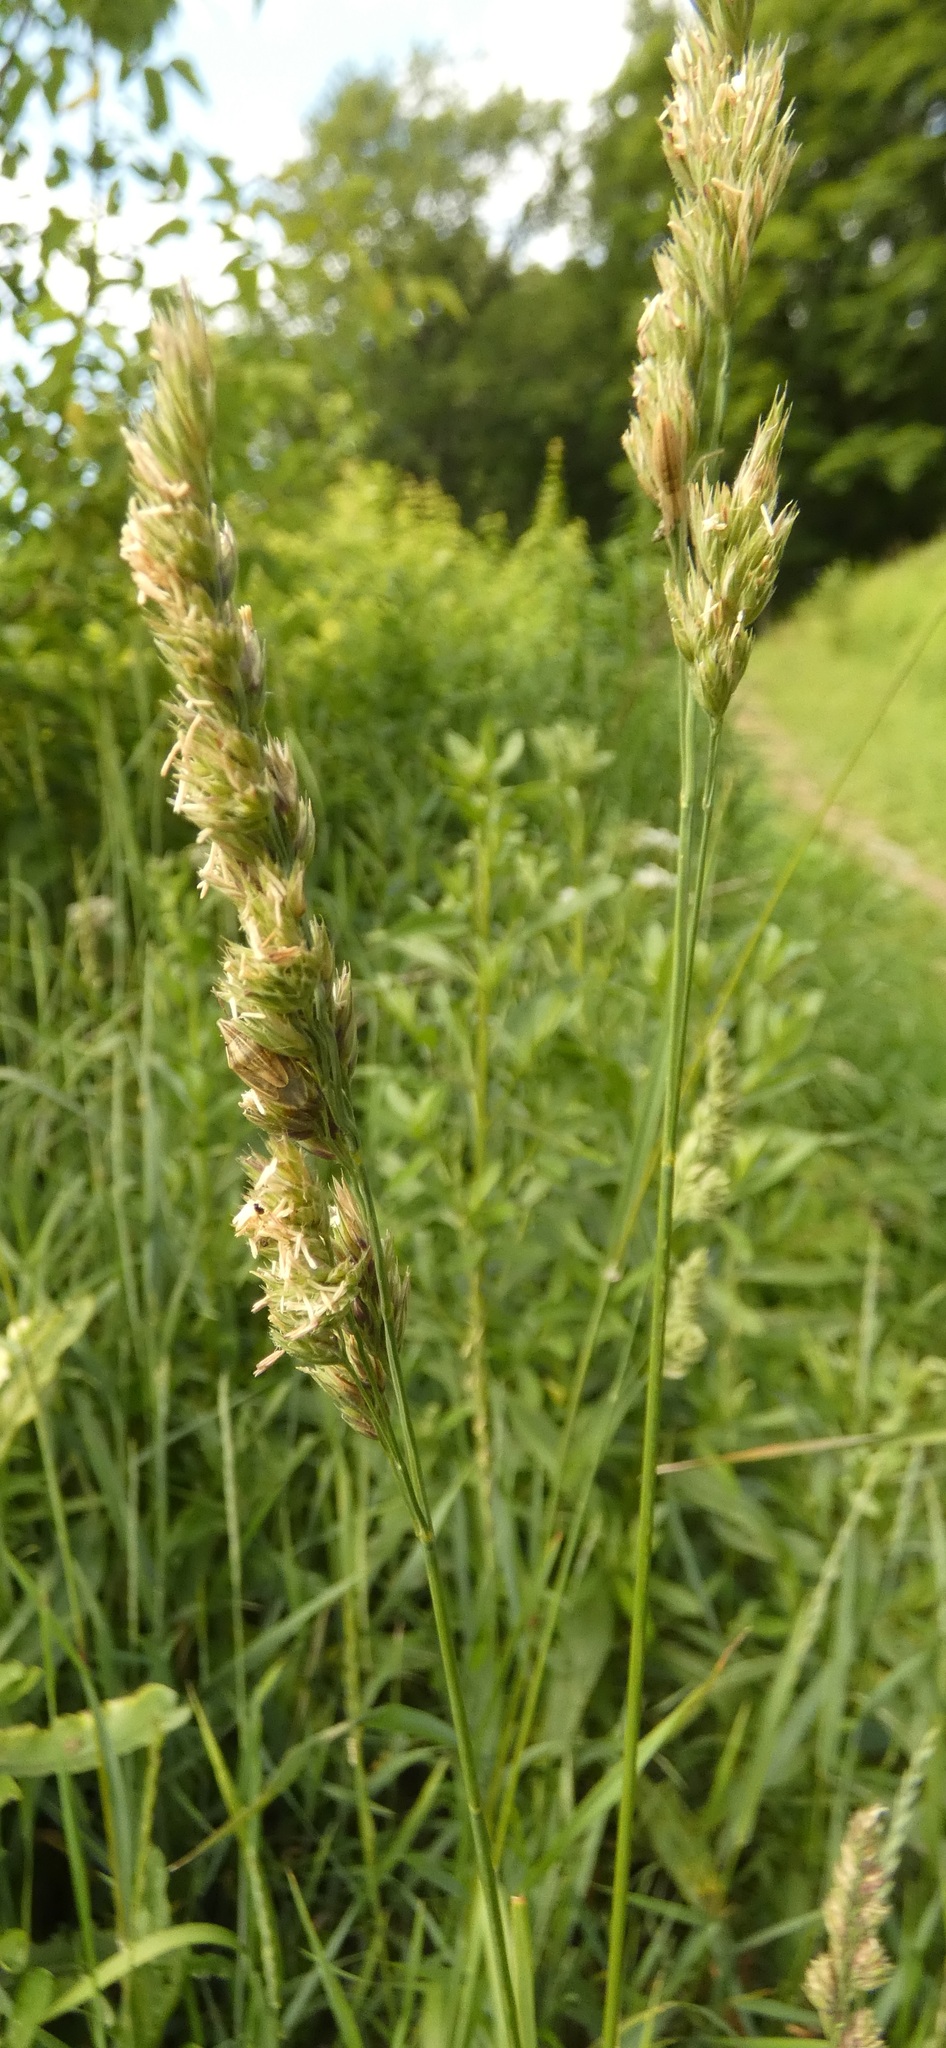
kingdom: Plantae
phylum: Tracheophyta
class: Liliopsida
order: Poales
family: Poaceae
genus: Dactylis
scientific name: Dactylis glomerata
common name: Orchardgrass
